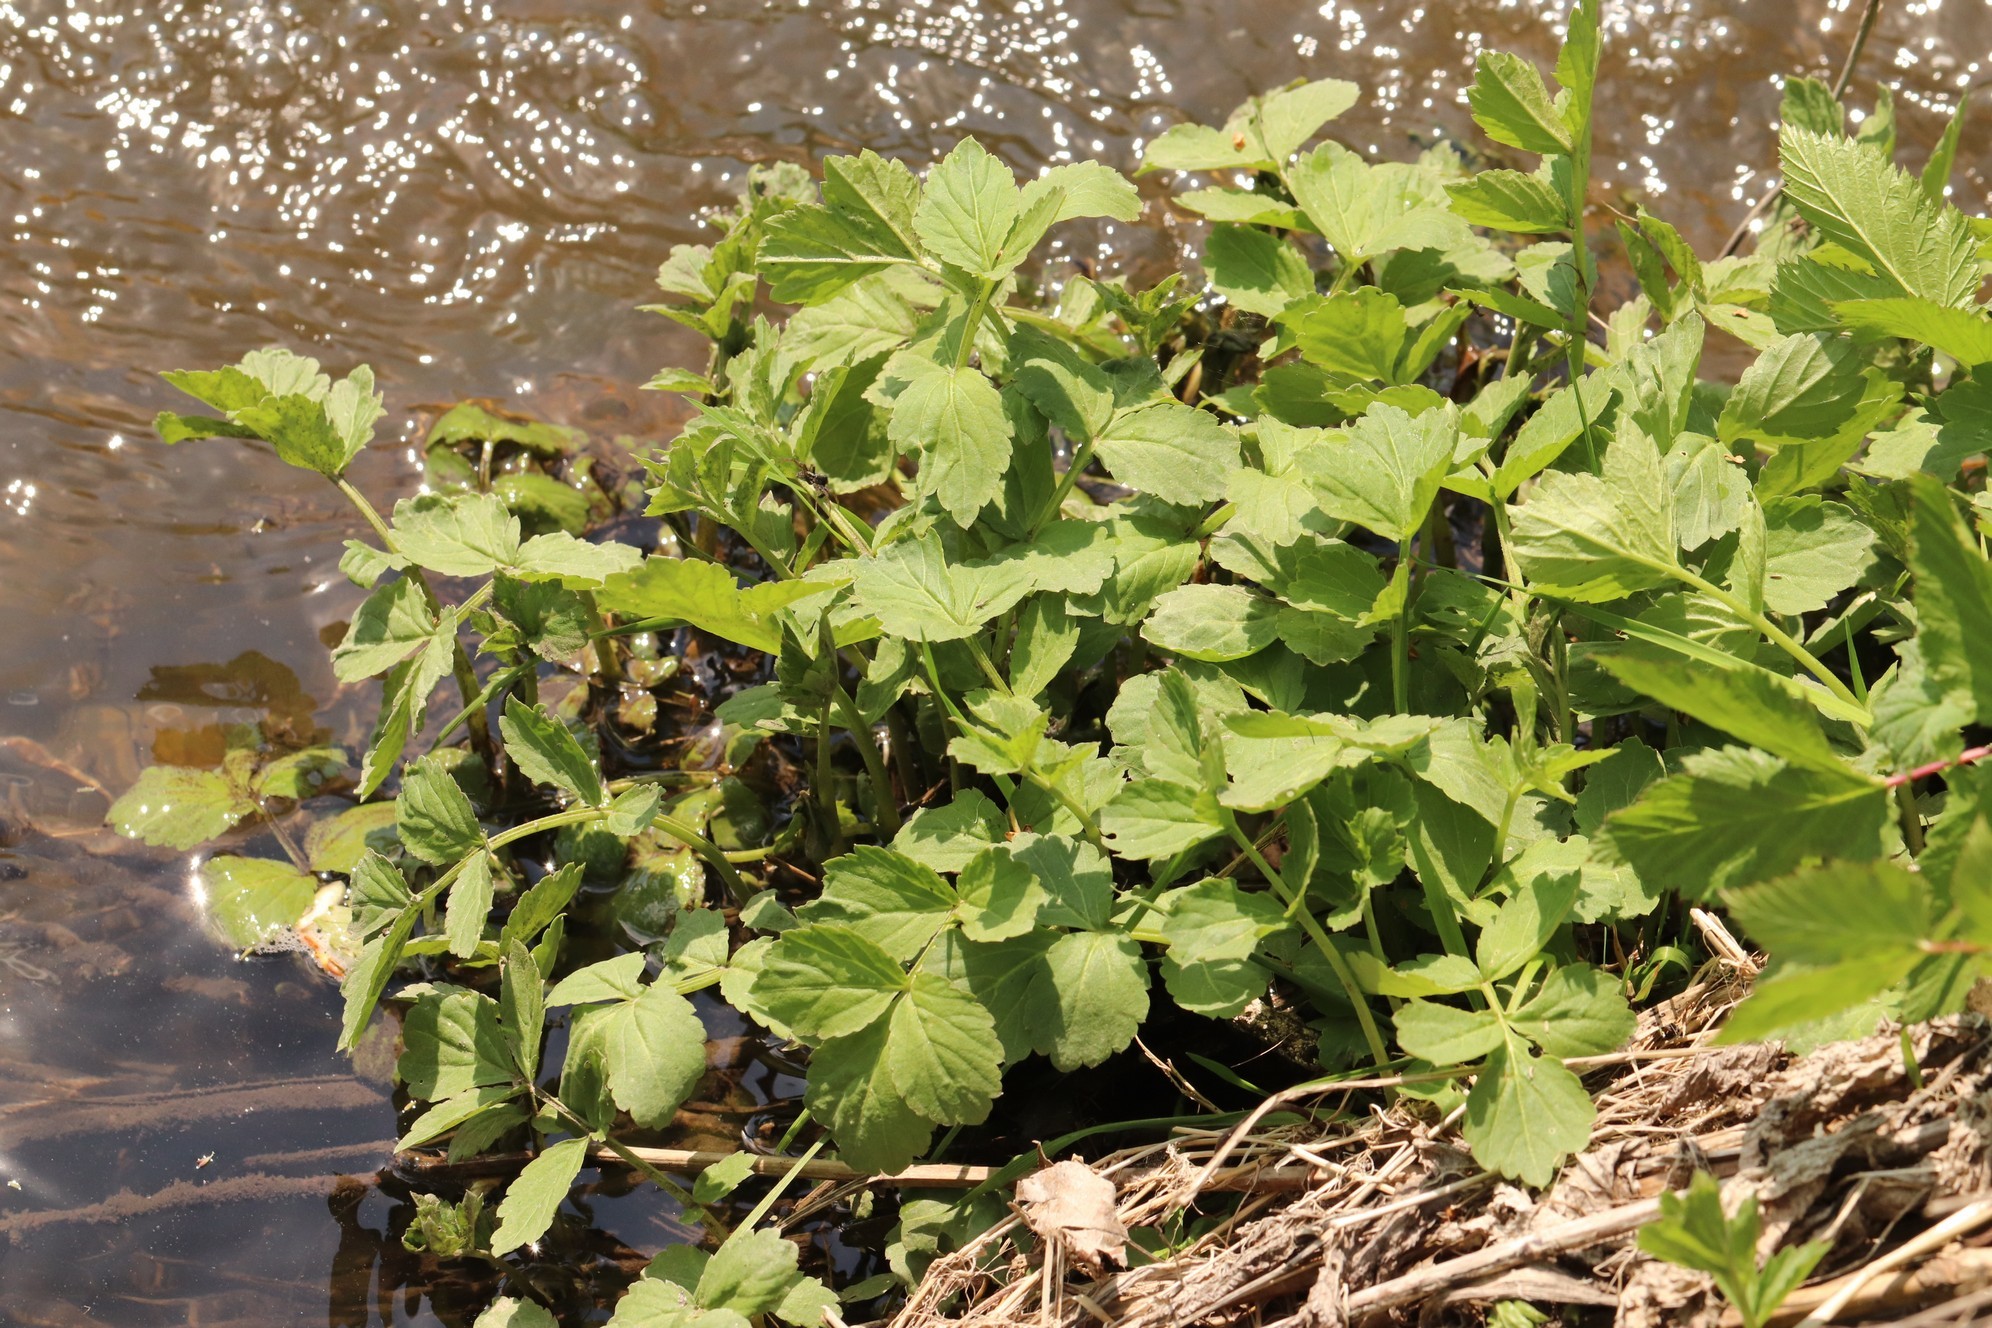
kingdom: Plantae
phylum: Tracheophyta
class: Magnoliopsida
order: Brassicales
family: Brassicaceae
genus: Cardamine
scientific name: Cardamine macrophylla
